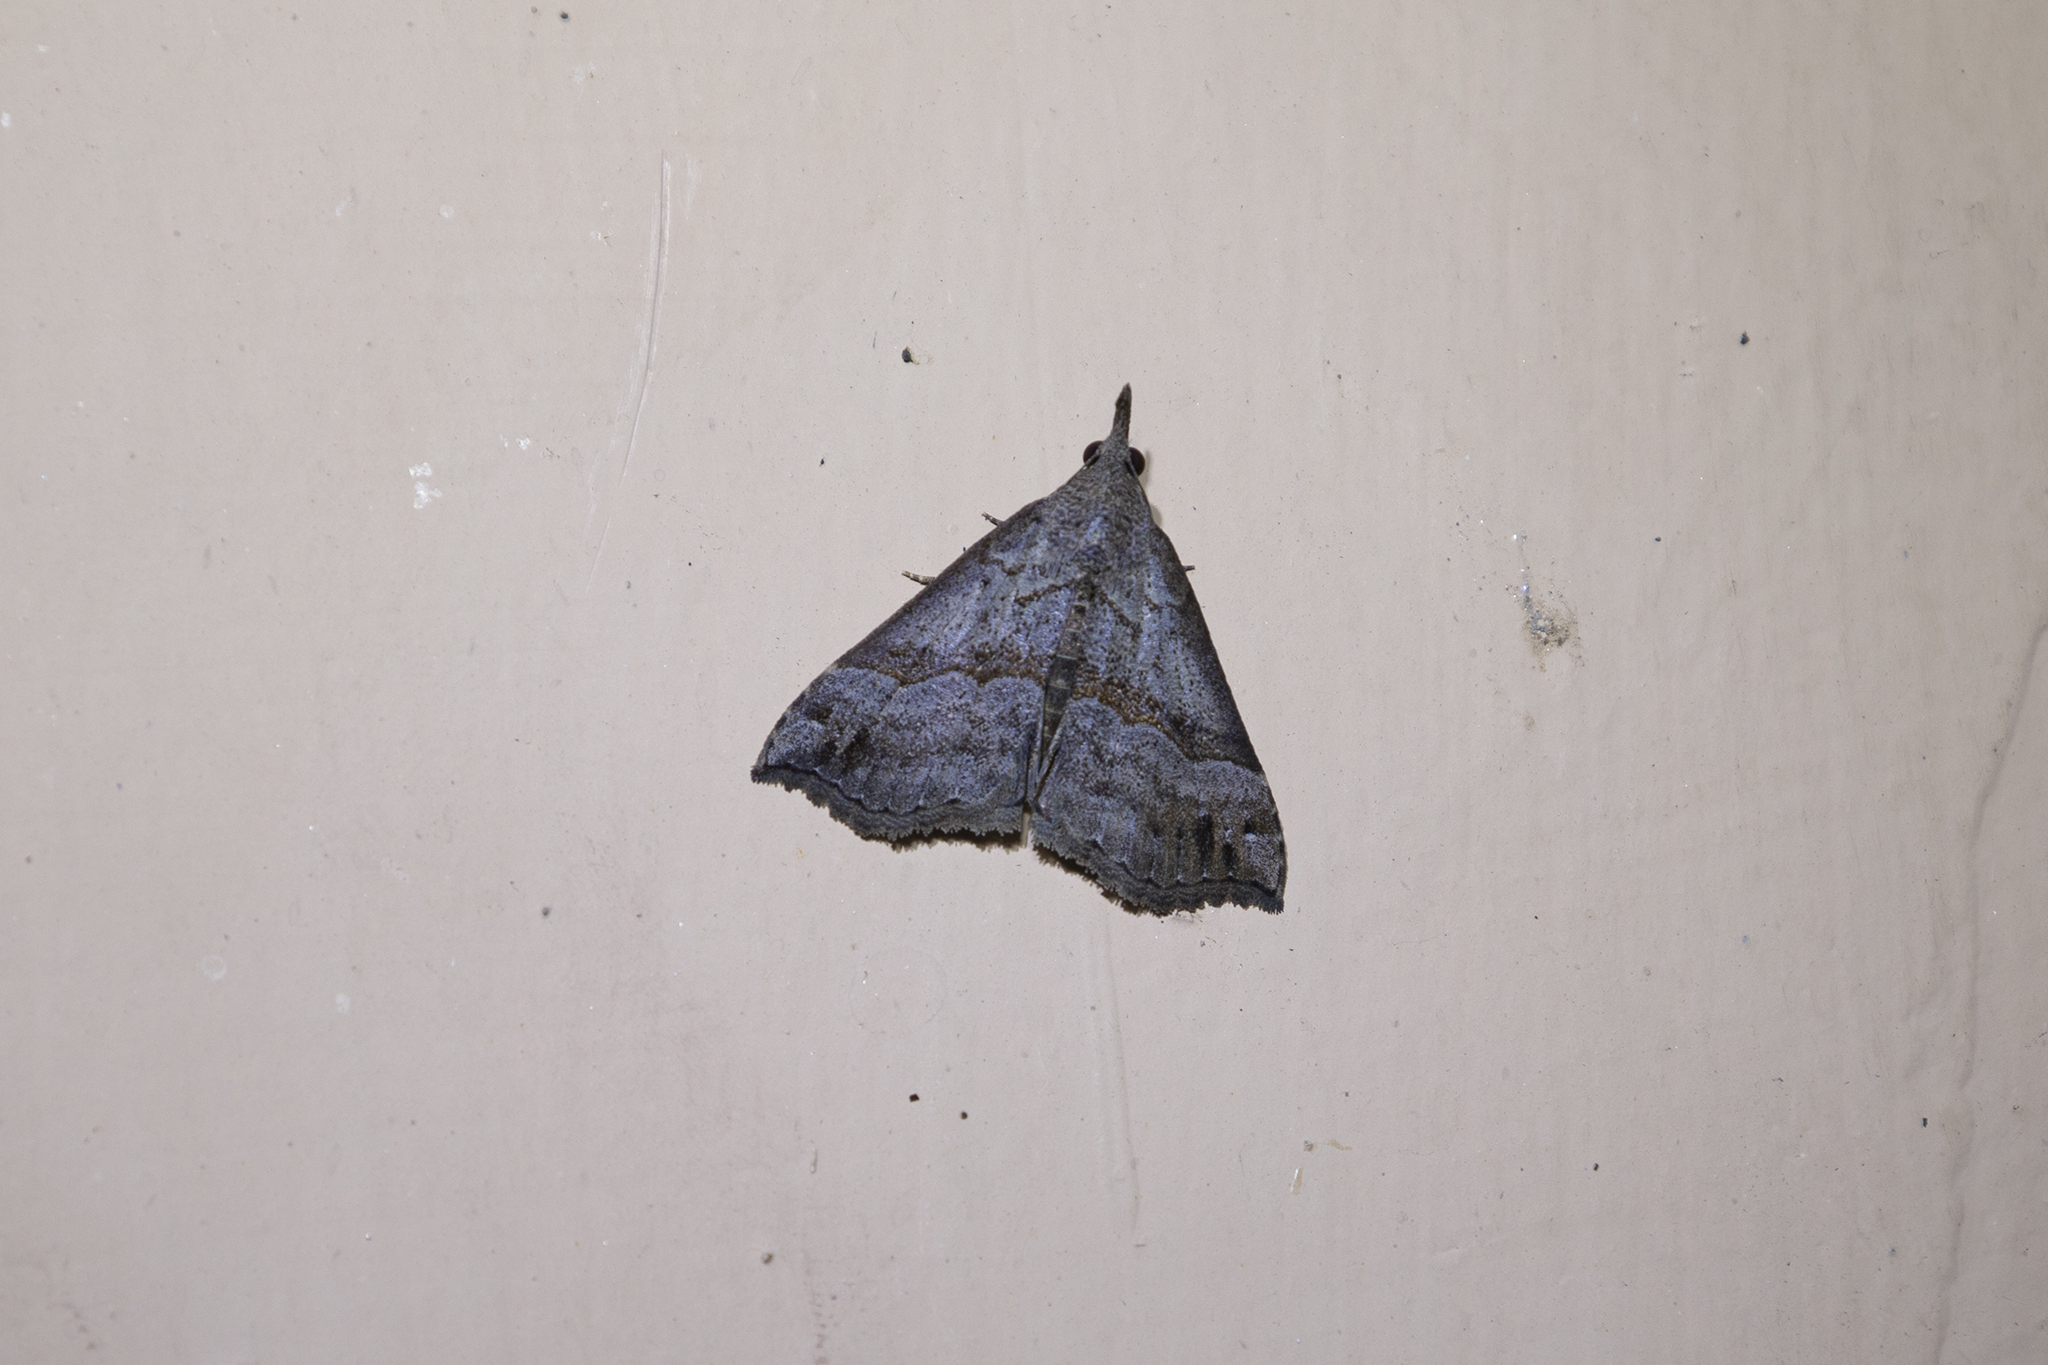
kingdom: Animalia
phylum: Arthropoda
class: Insecta
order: Lepidoptera
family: Erebidae
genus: Hypena
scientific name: Hypena
